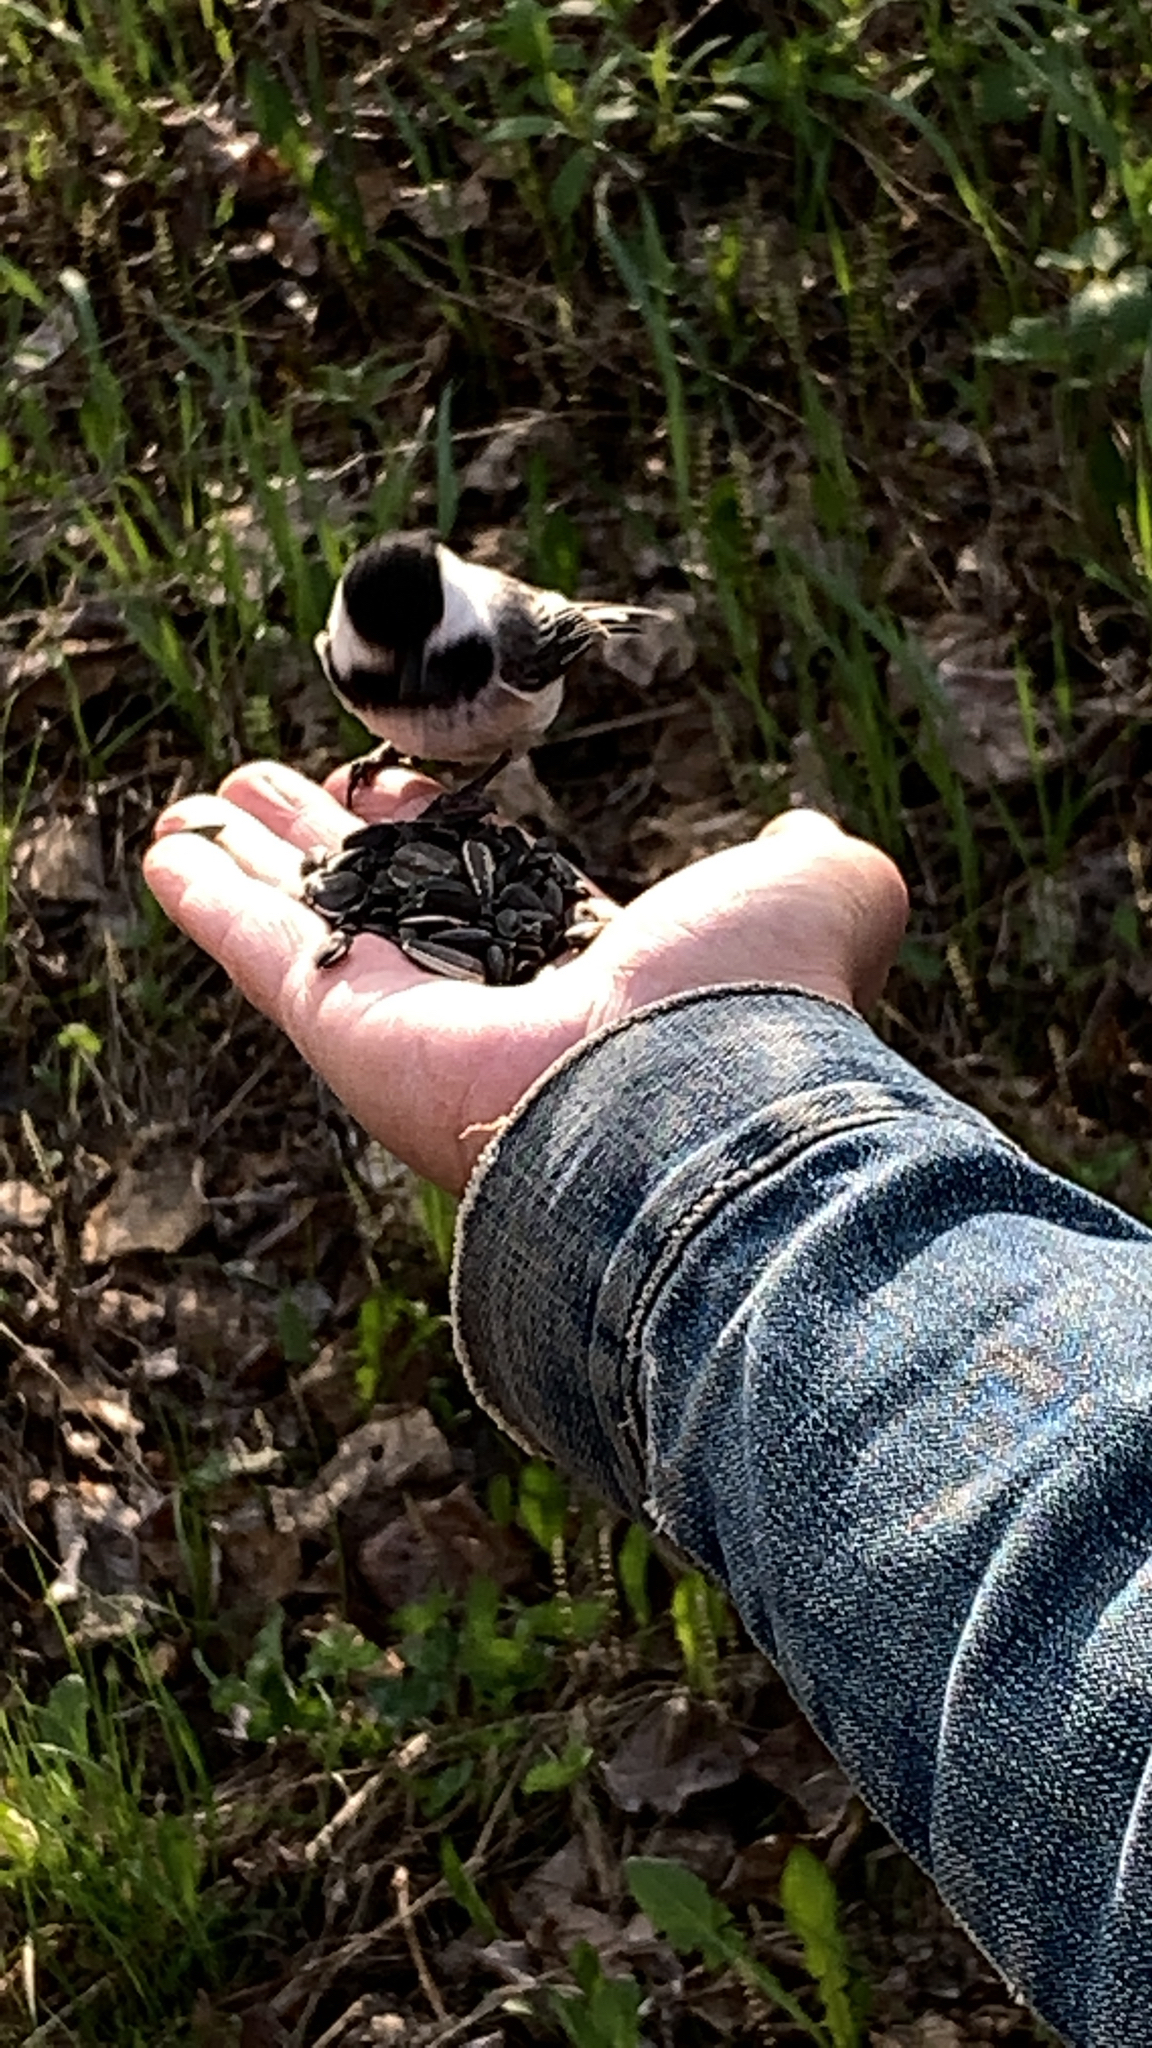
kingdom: Animalia
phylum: Chordata
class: Aves
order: Passeriformes
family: Paridae
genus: Poecile
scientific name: Poecile atricapillus
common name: Black-capped chickadee
